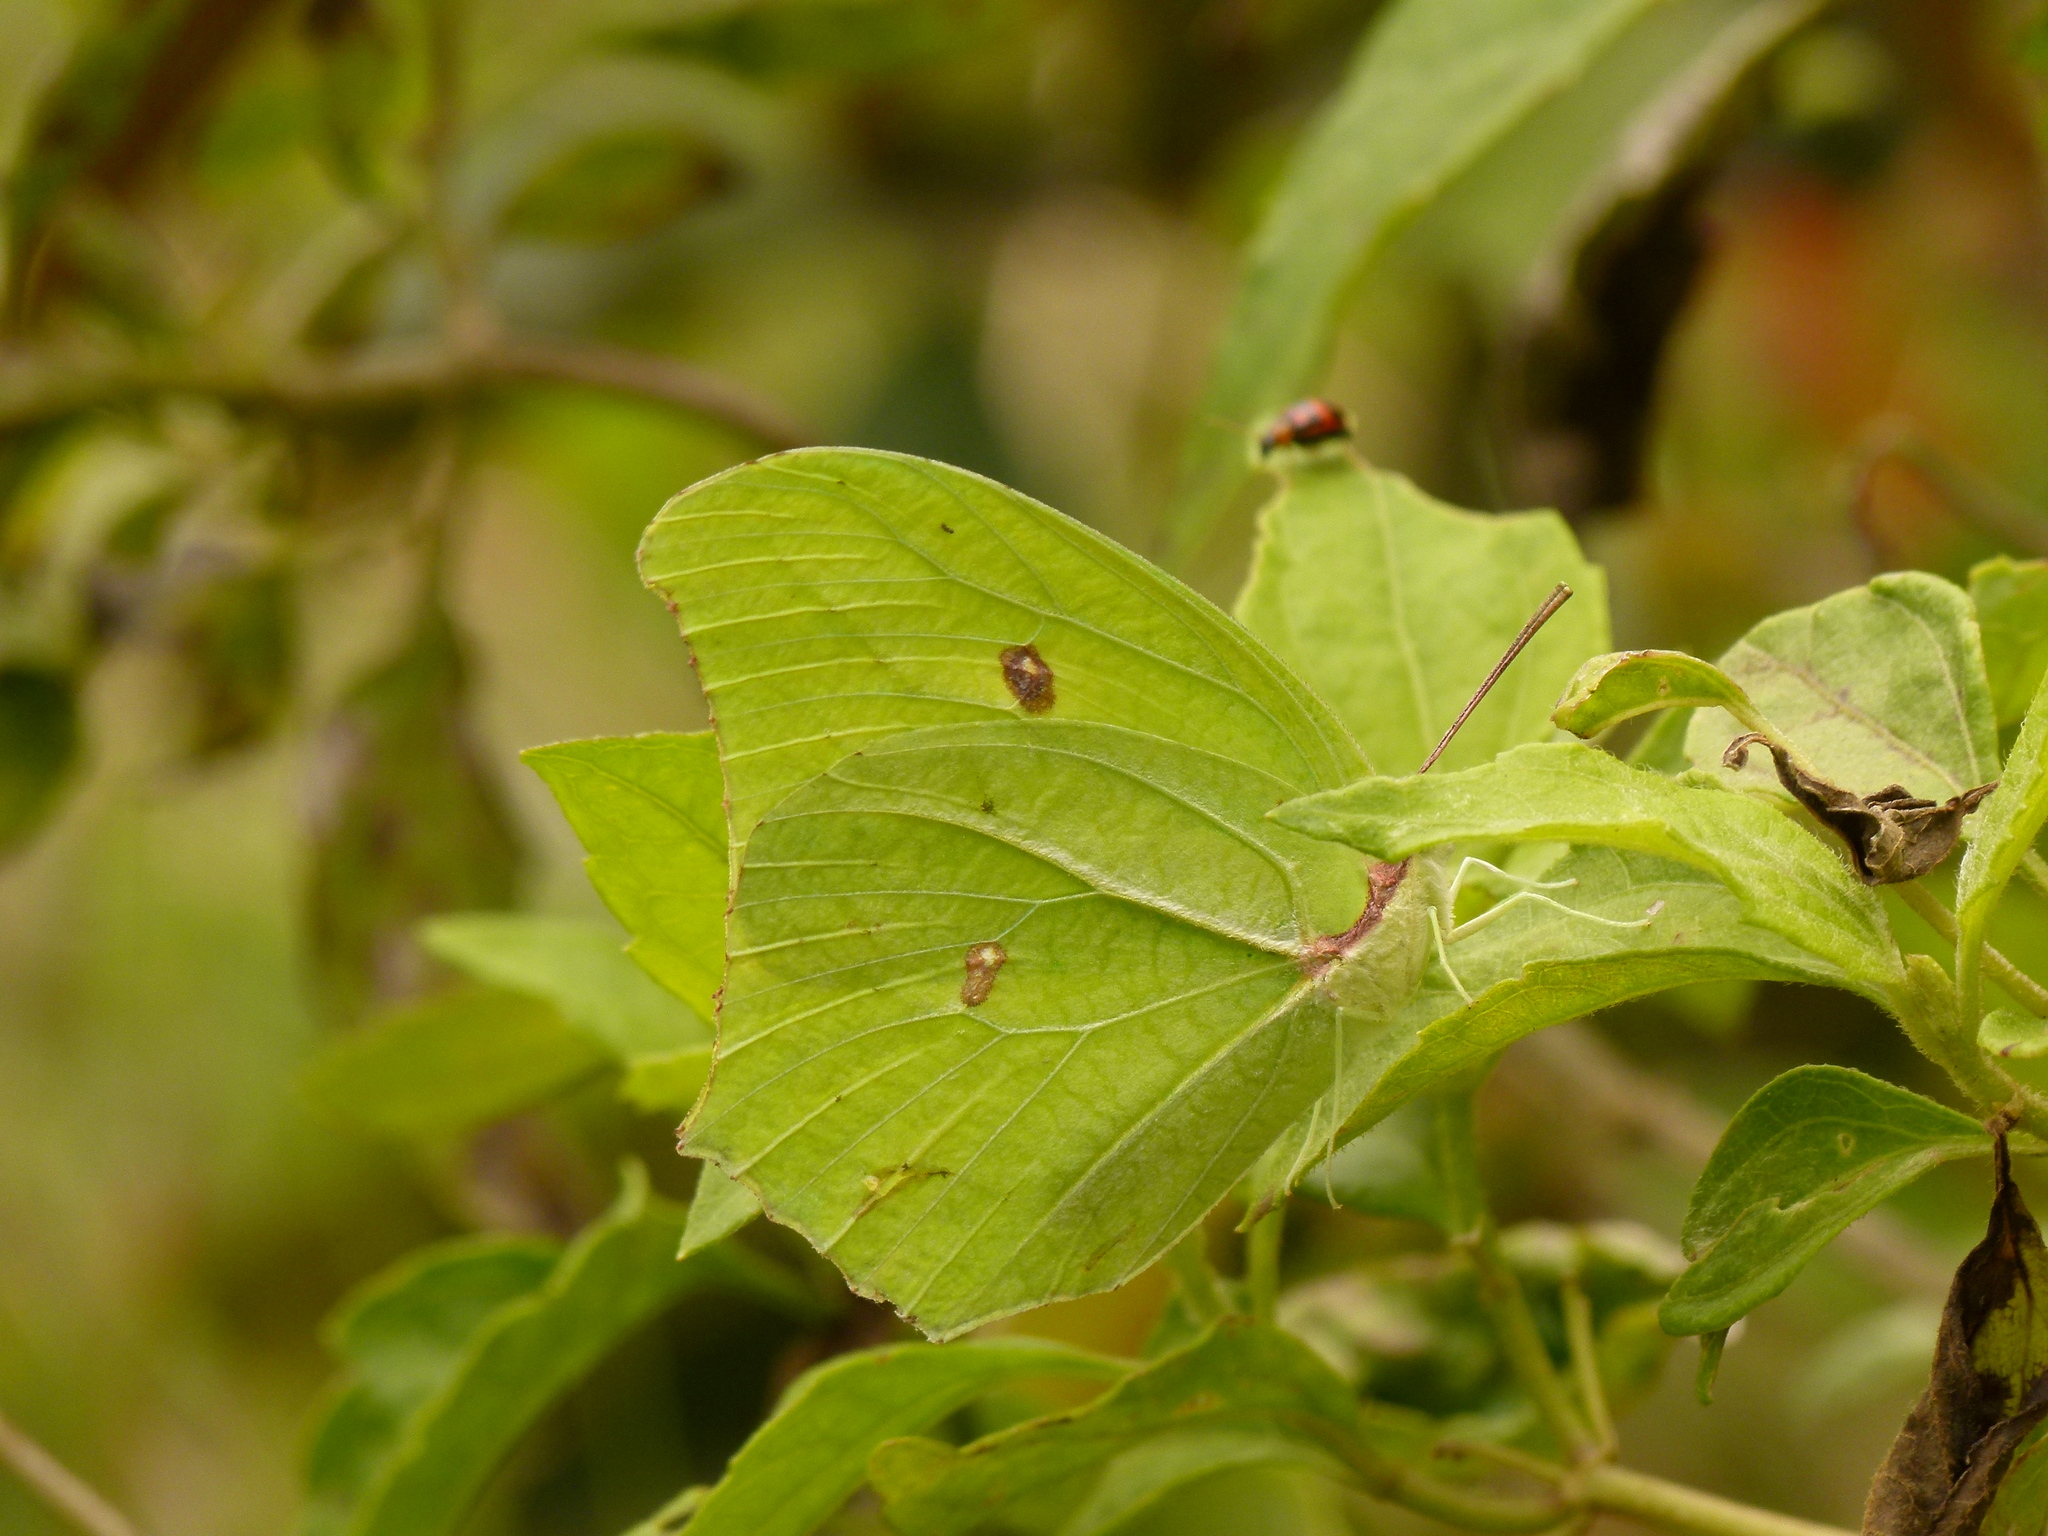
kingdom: Animalia
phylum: Arthropoda
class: Insecta
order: Lepidoptera
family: Pieridae
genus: Anteos
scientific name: Anteos maerula
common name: Angled sulphur
